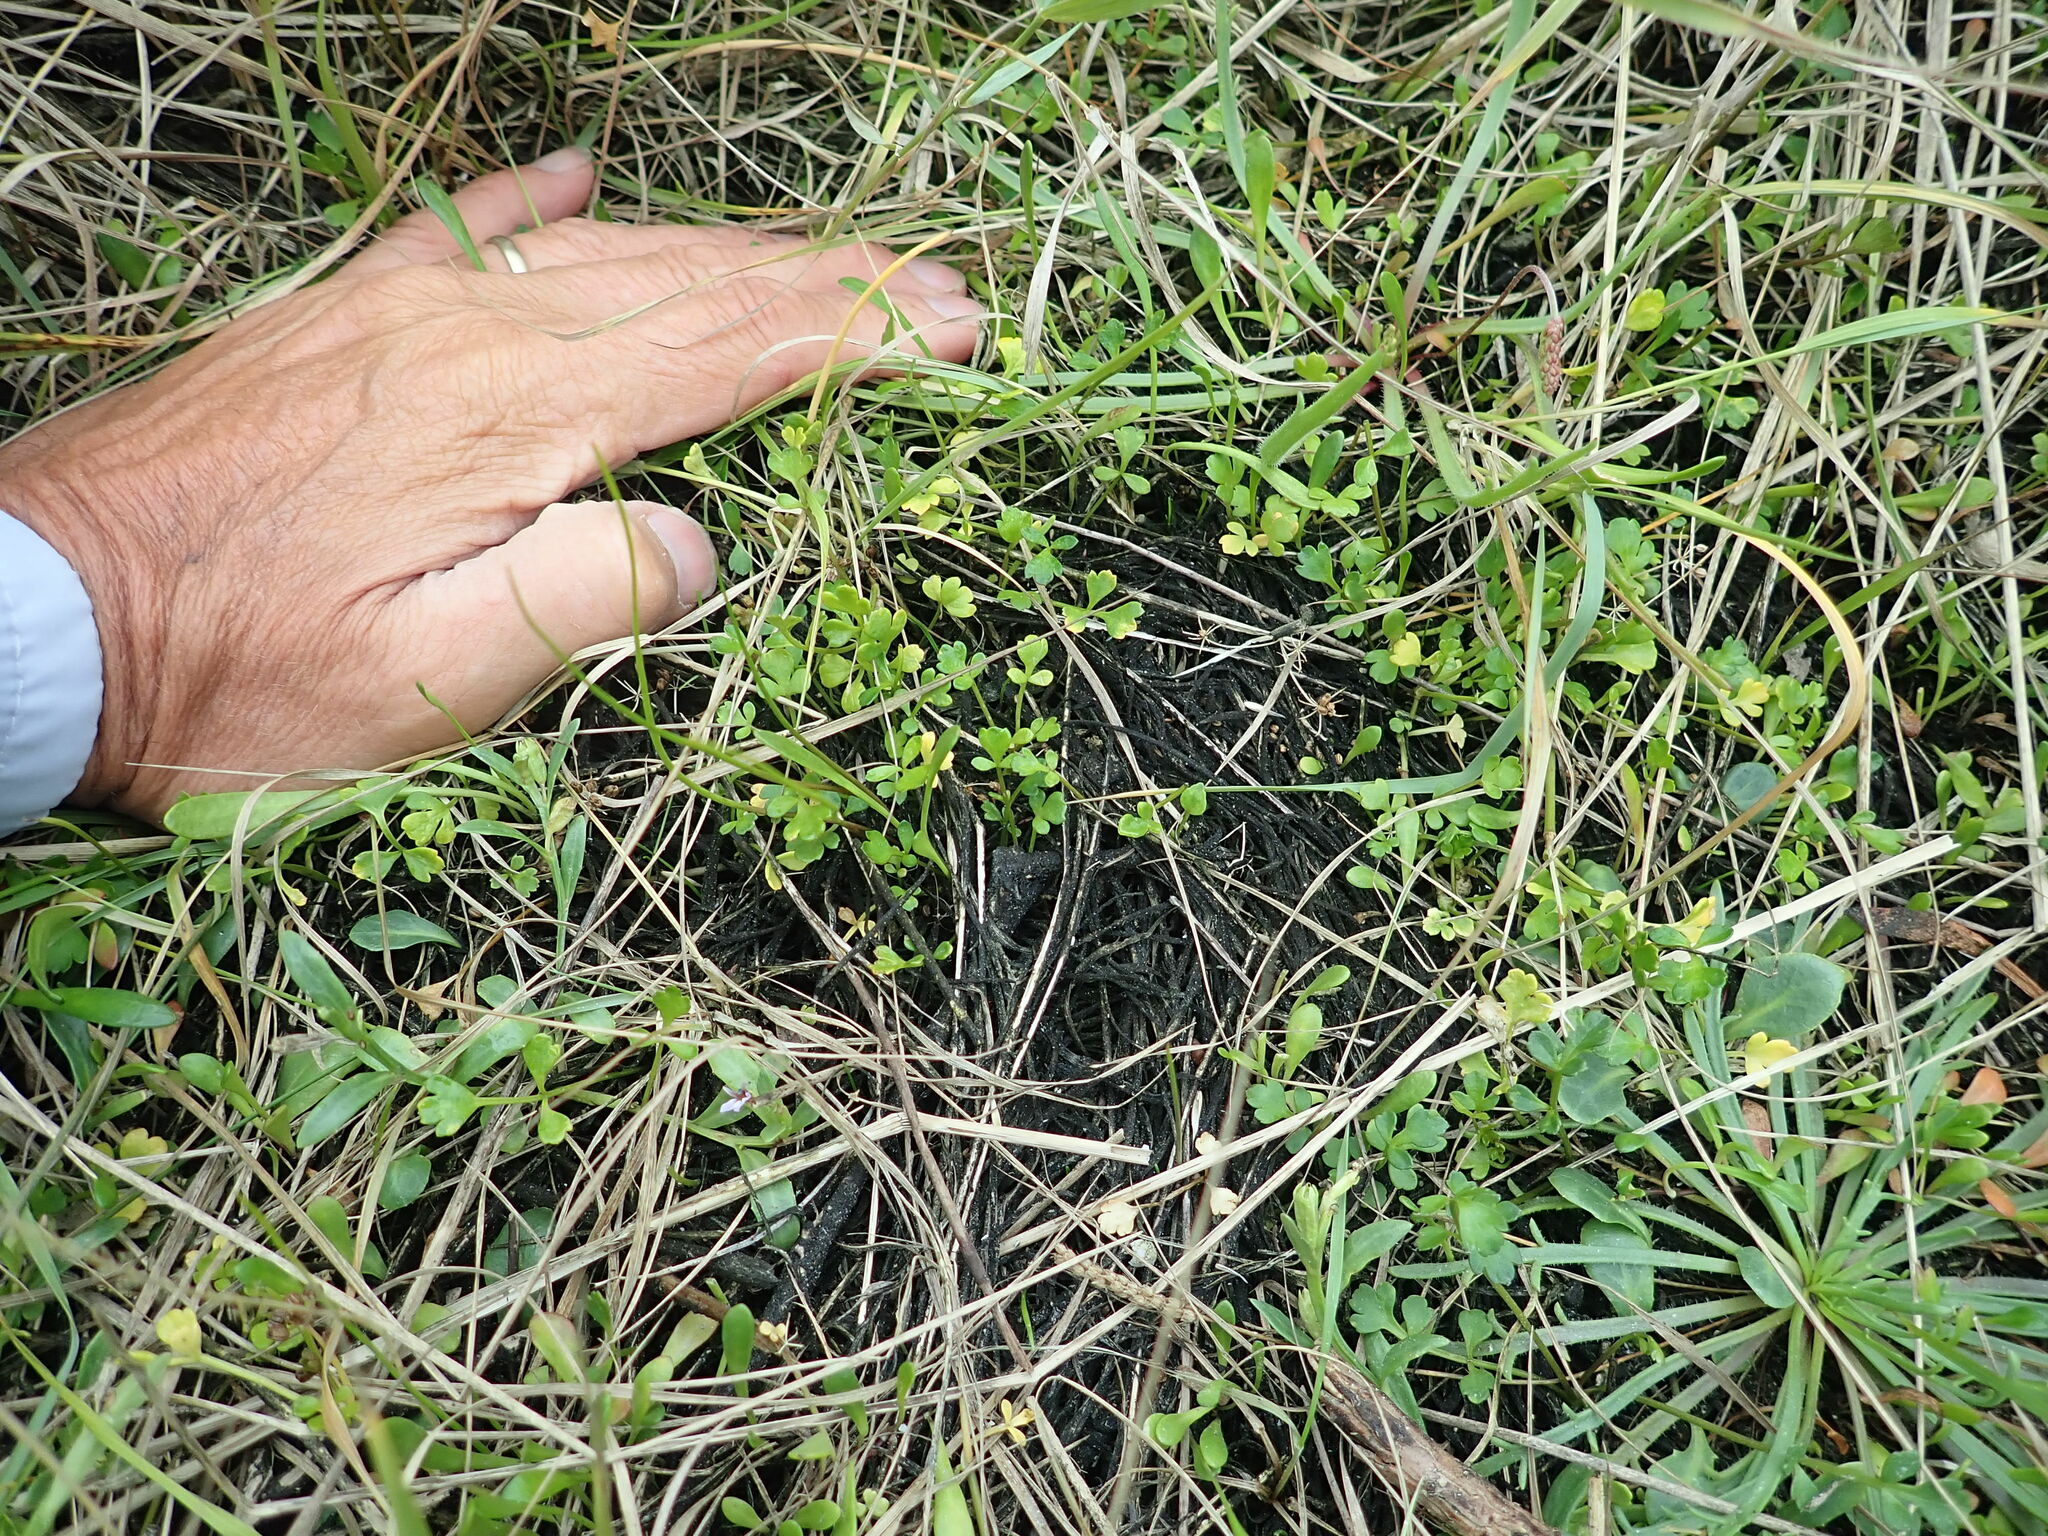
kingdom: Plantae
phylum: Tracheophyta
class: Magnoliopsida
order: Apiales
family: Apiaceae
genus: Apium
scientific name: Apium prostratum
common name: Prostrate marshwort
